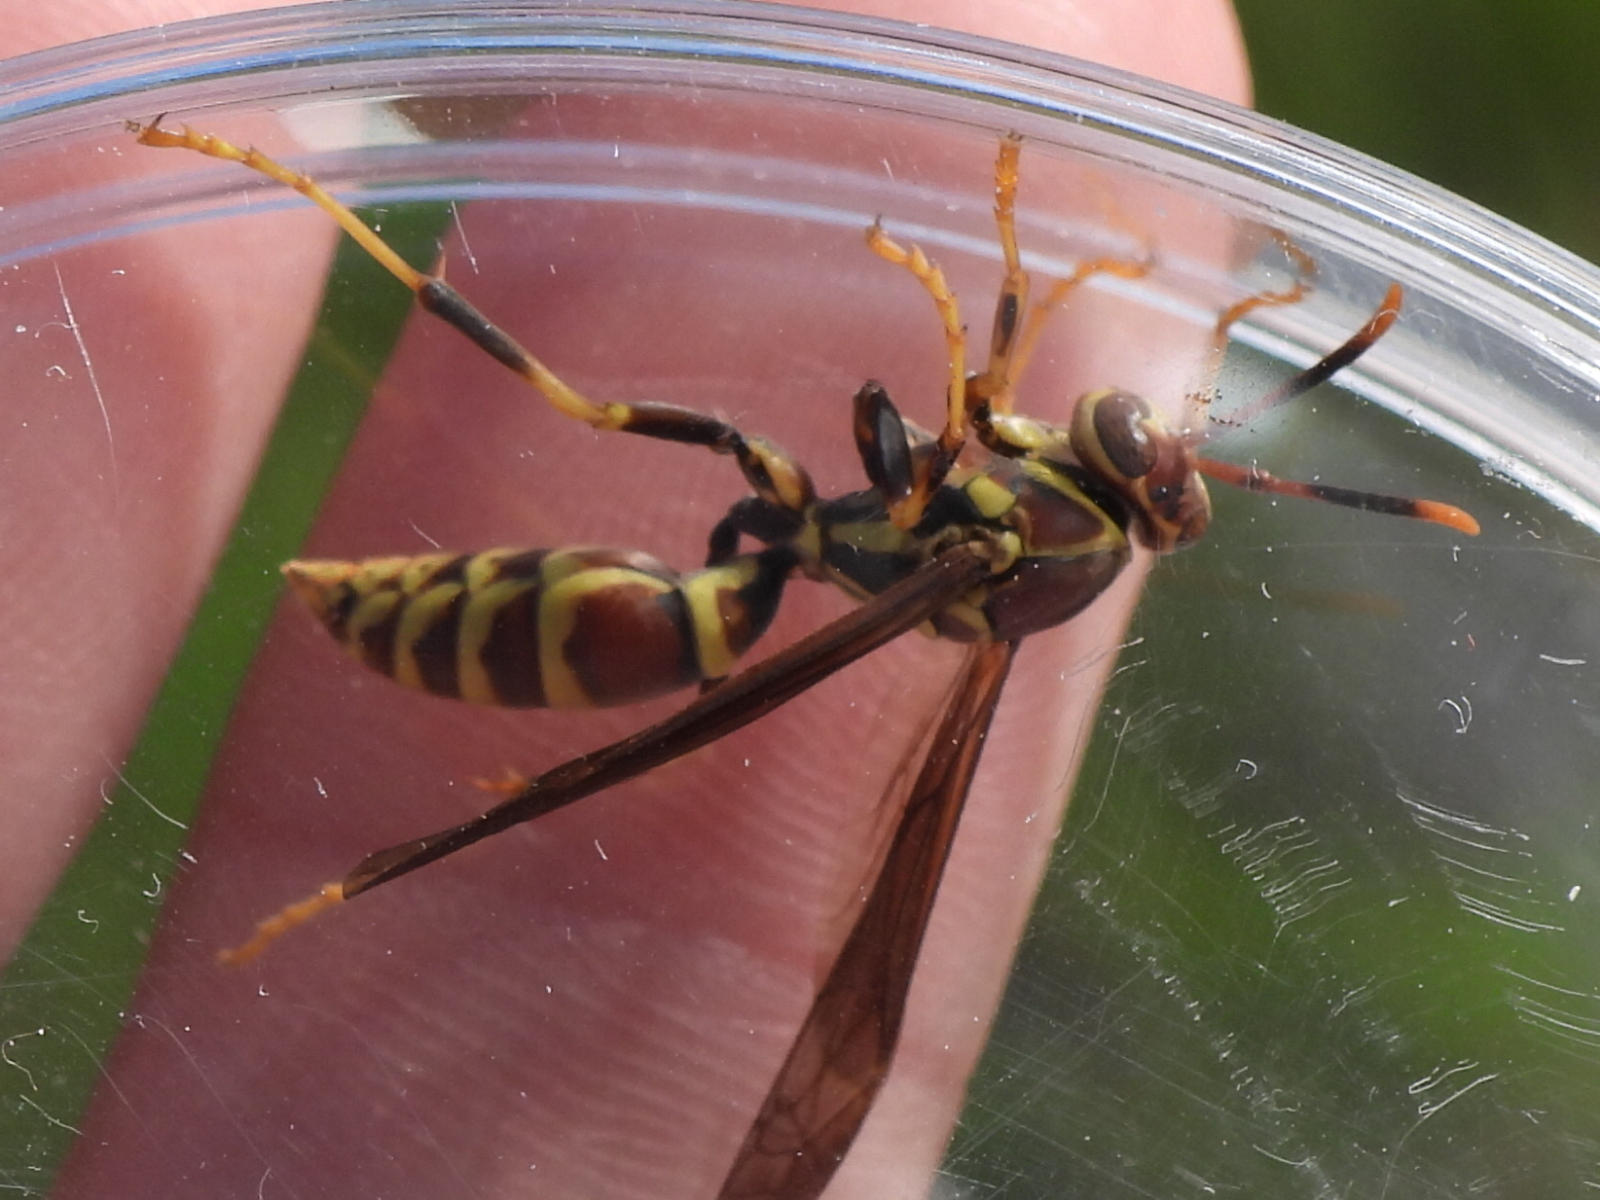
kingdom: Animalia
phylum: Arthropoda
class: Insecta
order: Hymenoptera
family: Eumenidae
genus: Polistes
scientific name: Polistes exclamans
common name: Paper wasp
